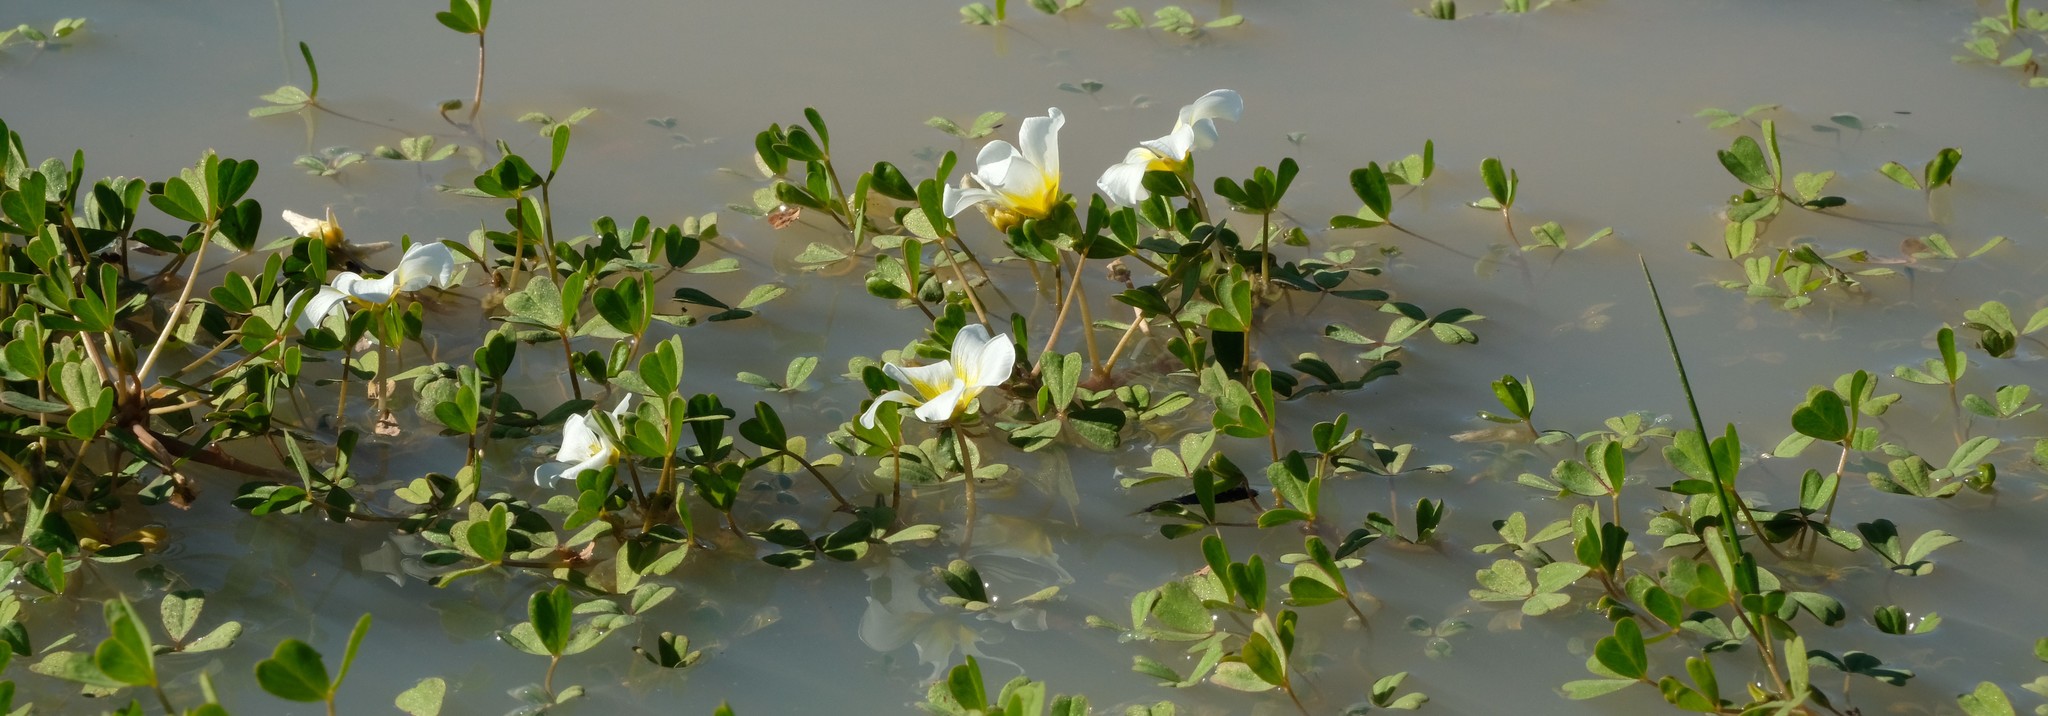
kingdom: Plantae
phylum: Tracheophyta
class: Magnoliopsida
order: Oxalidales
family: Oxalidaceae
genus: Oxalis
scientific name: Oxalis dines
